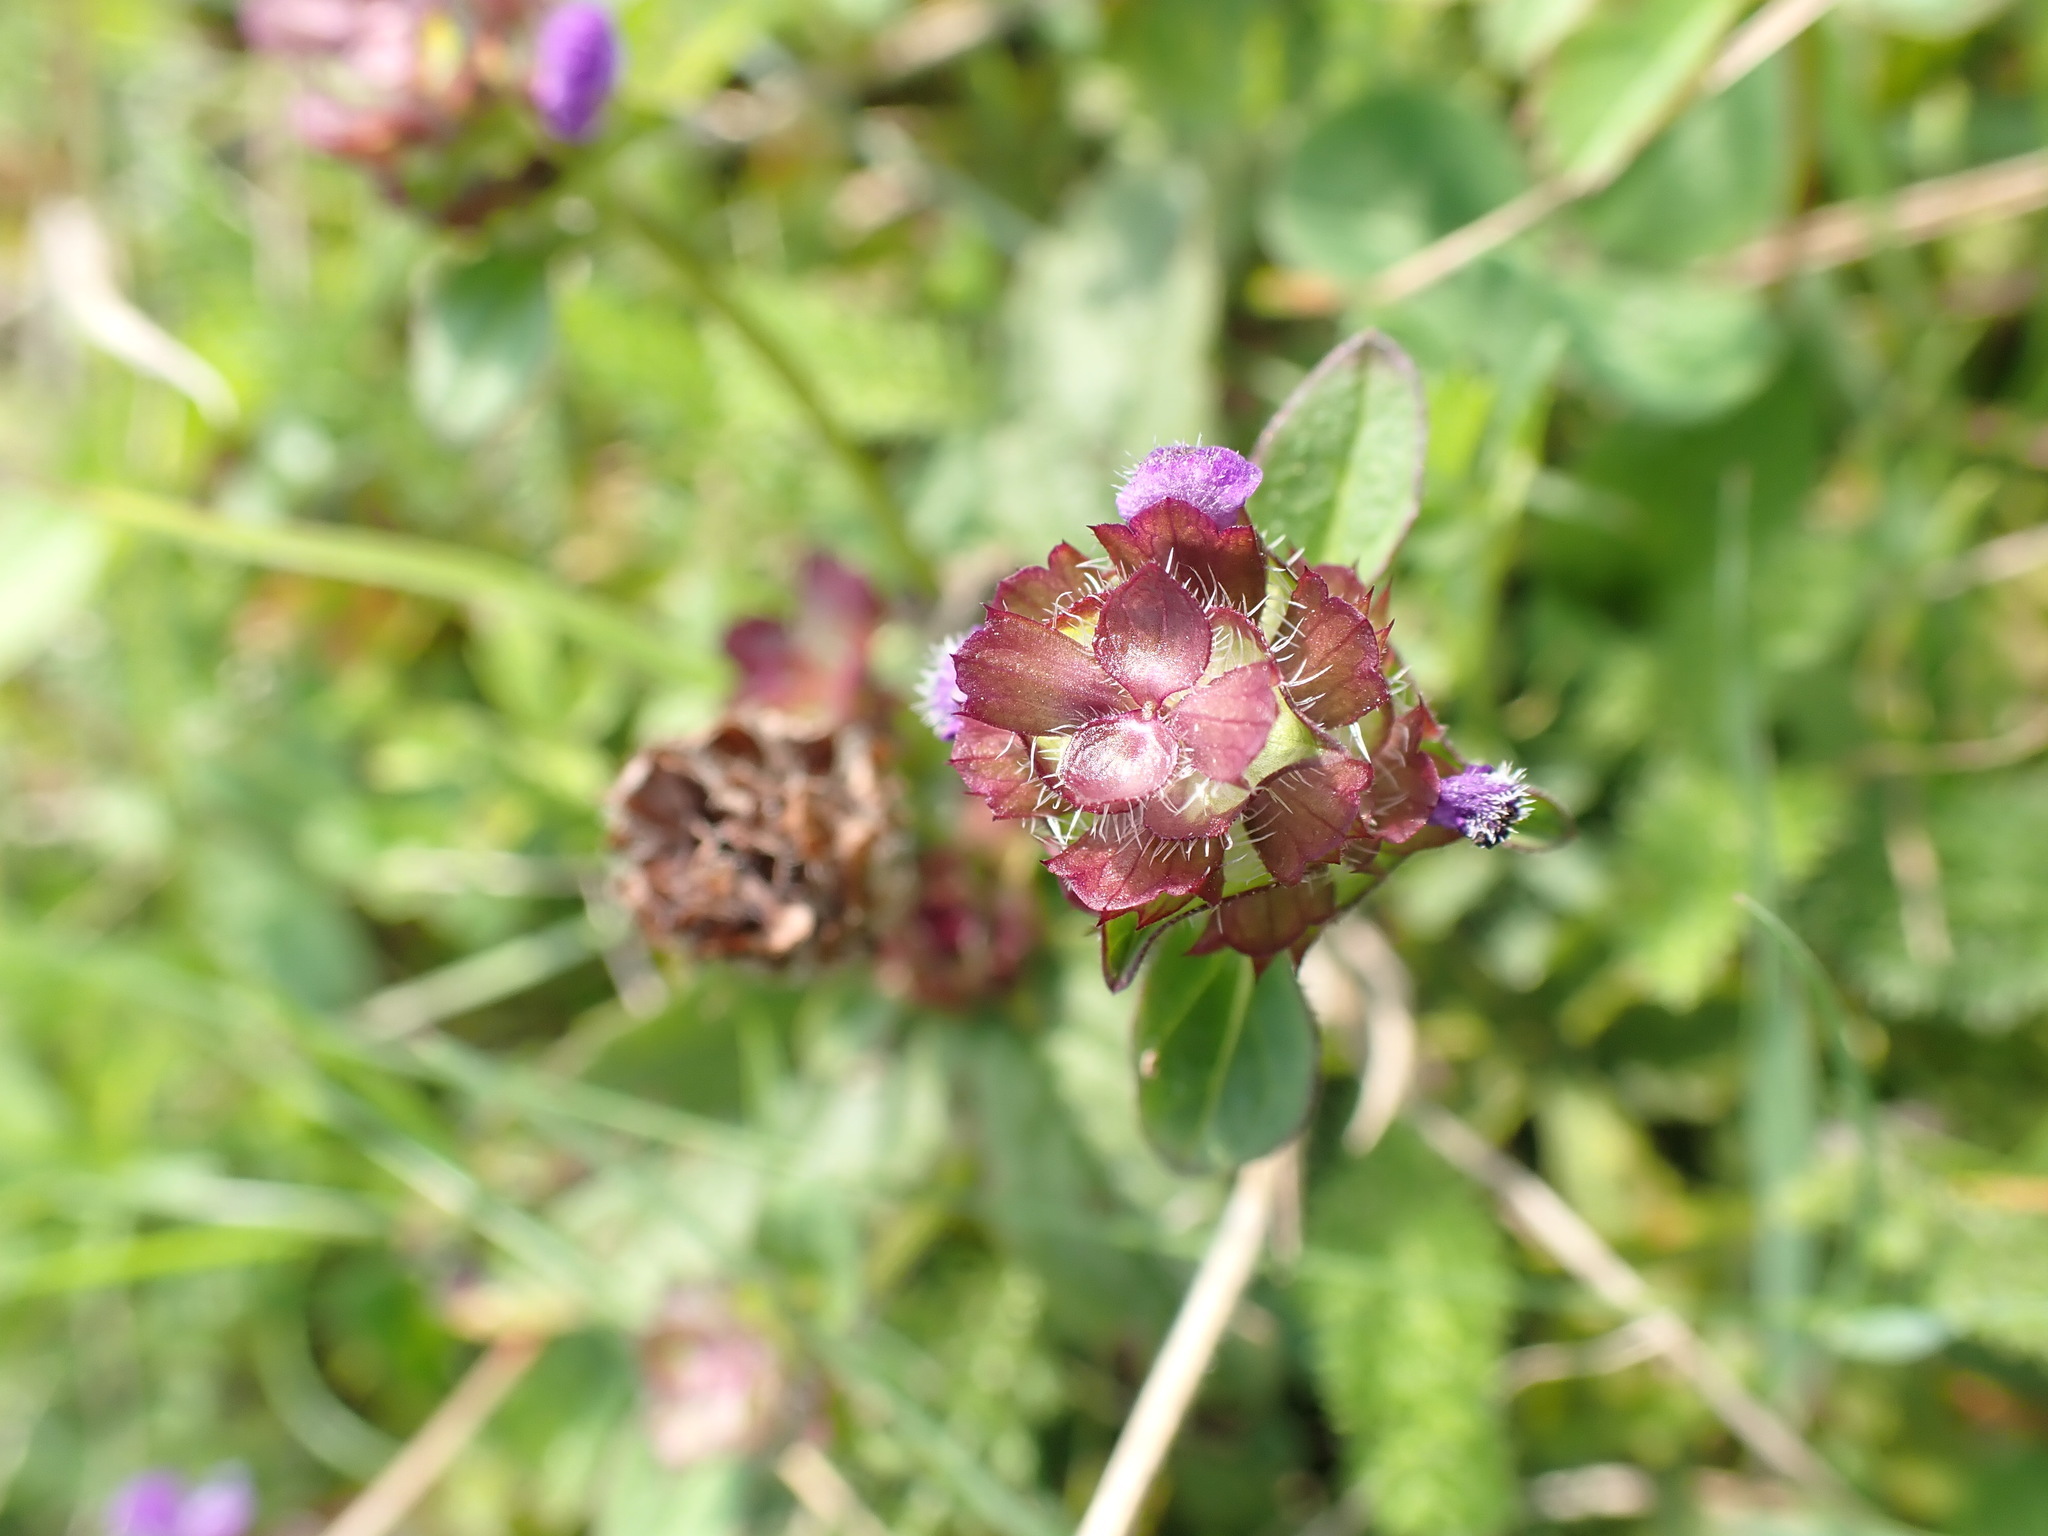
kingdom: Plantae
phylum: Tracheophyta
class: Magnoliopsida
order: Lamiales
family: Lamiaceae
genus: Prunella
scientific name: Prunella vulgaris
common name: Heal-all
